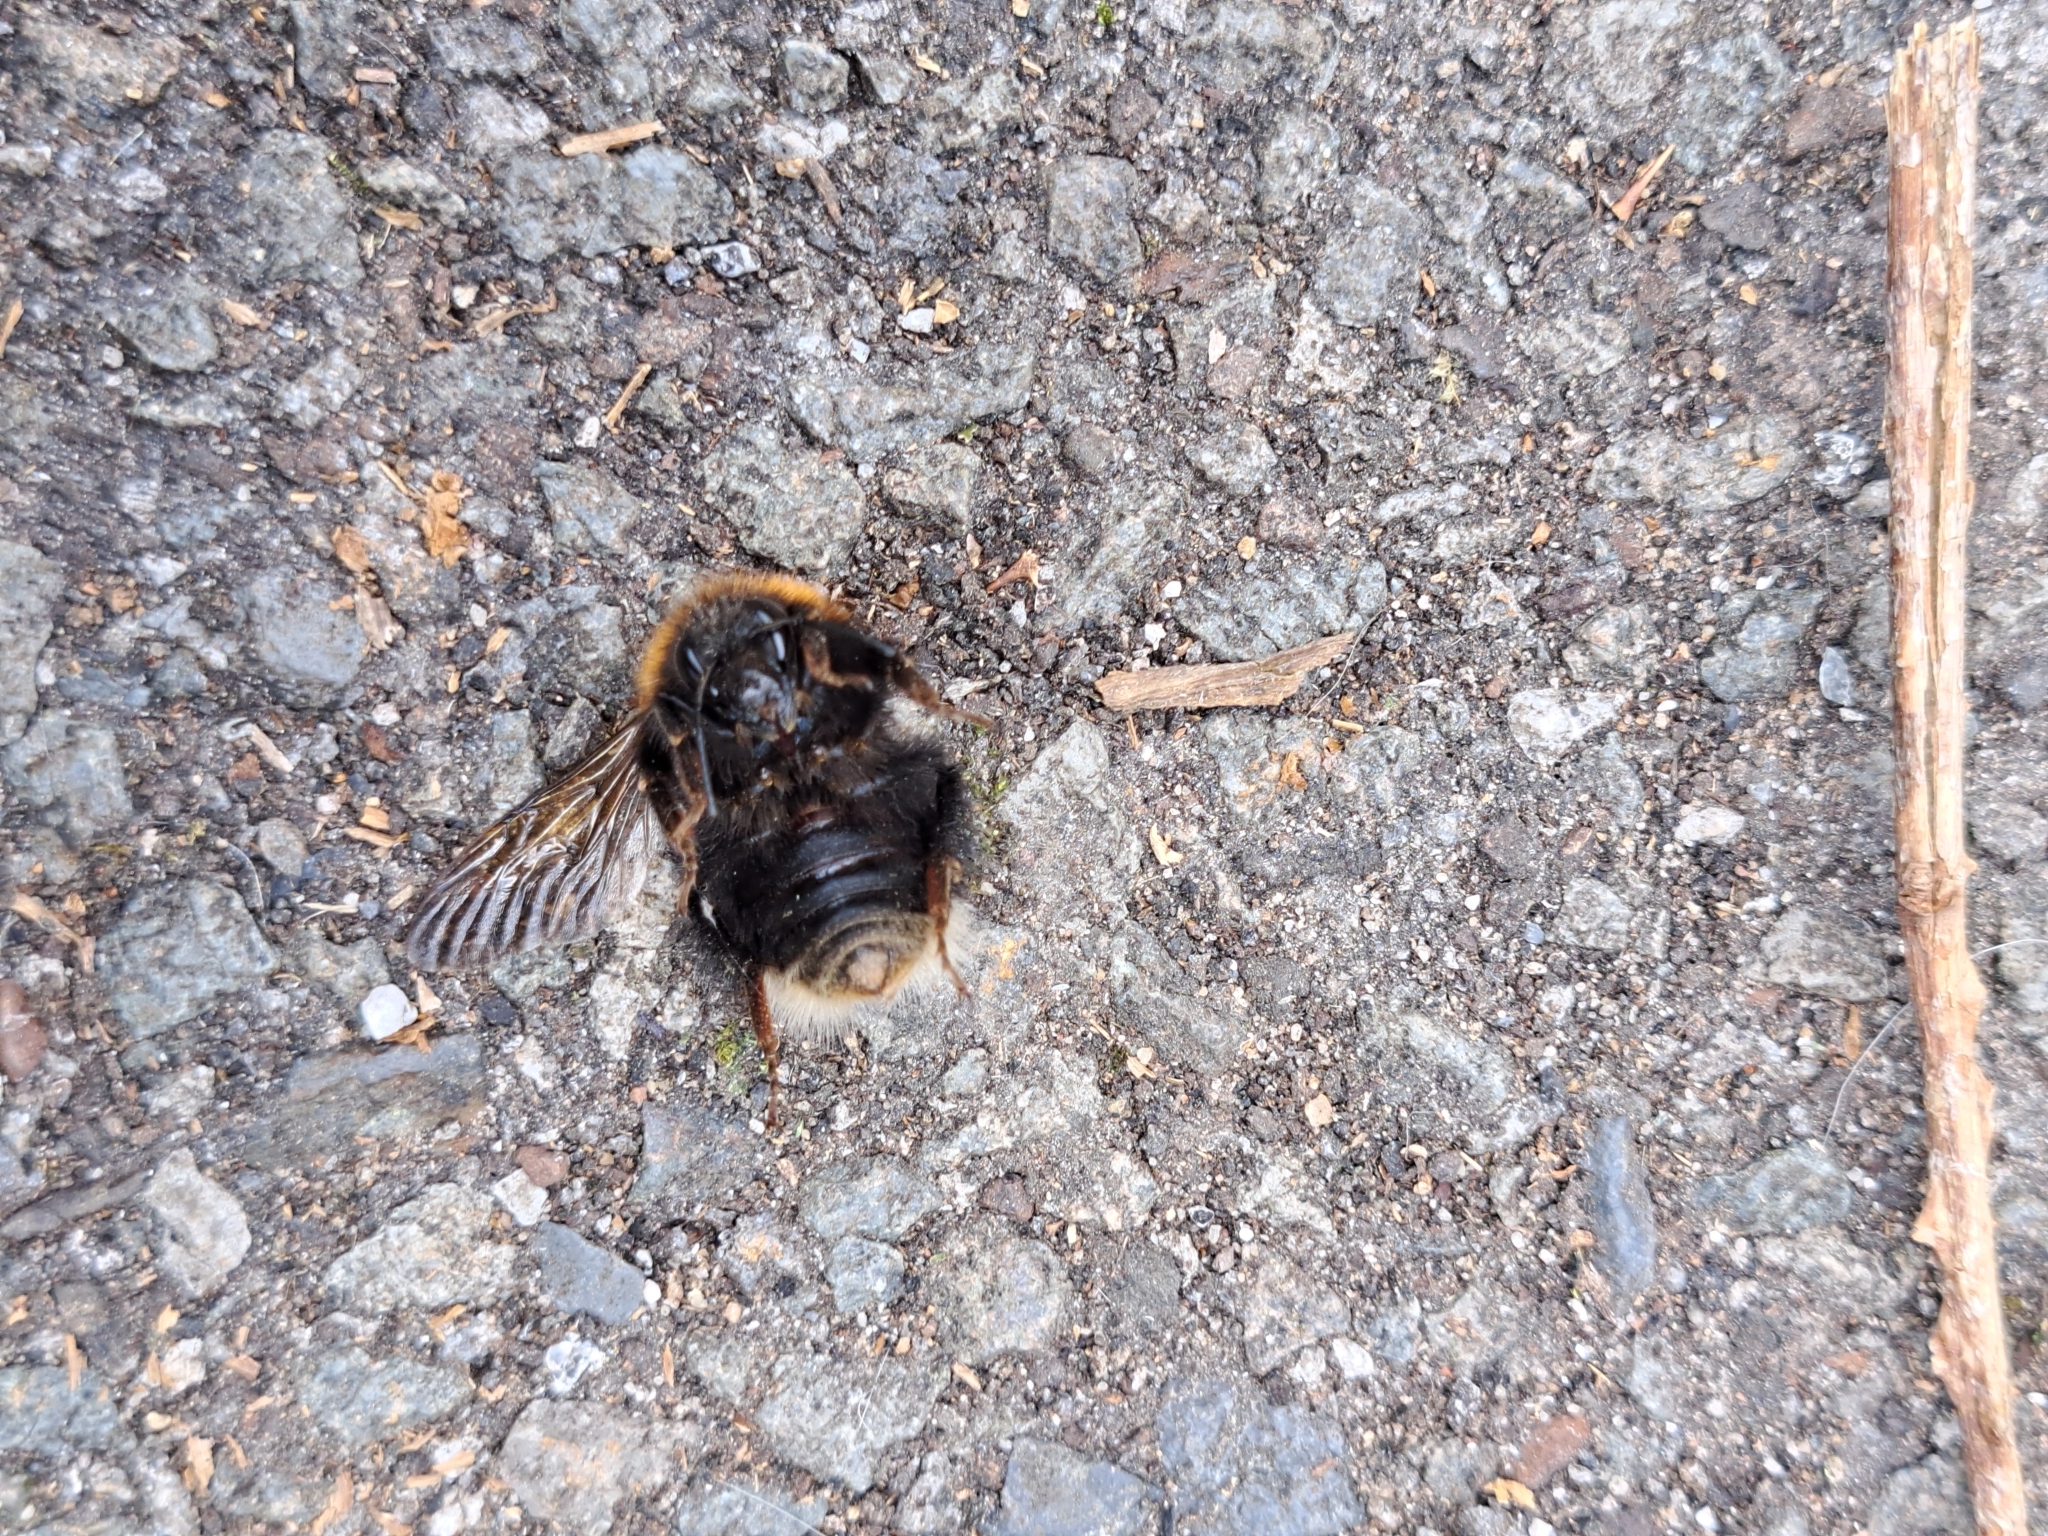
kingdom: Animalia
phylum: Arthropoda
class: Insecta
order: Hymenoptera
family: Apidae
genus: Bombus
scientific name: Bombus hypnorum
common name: New garden bumblebee
